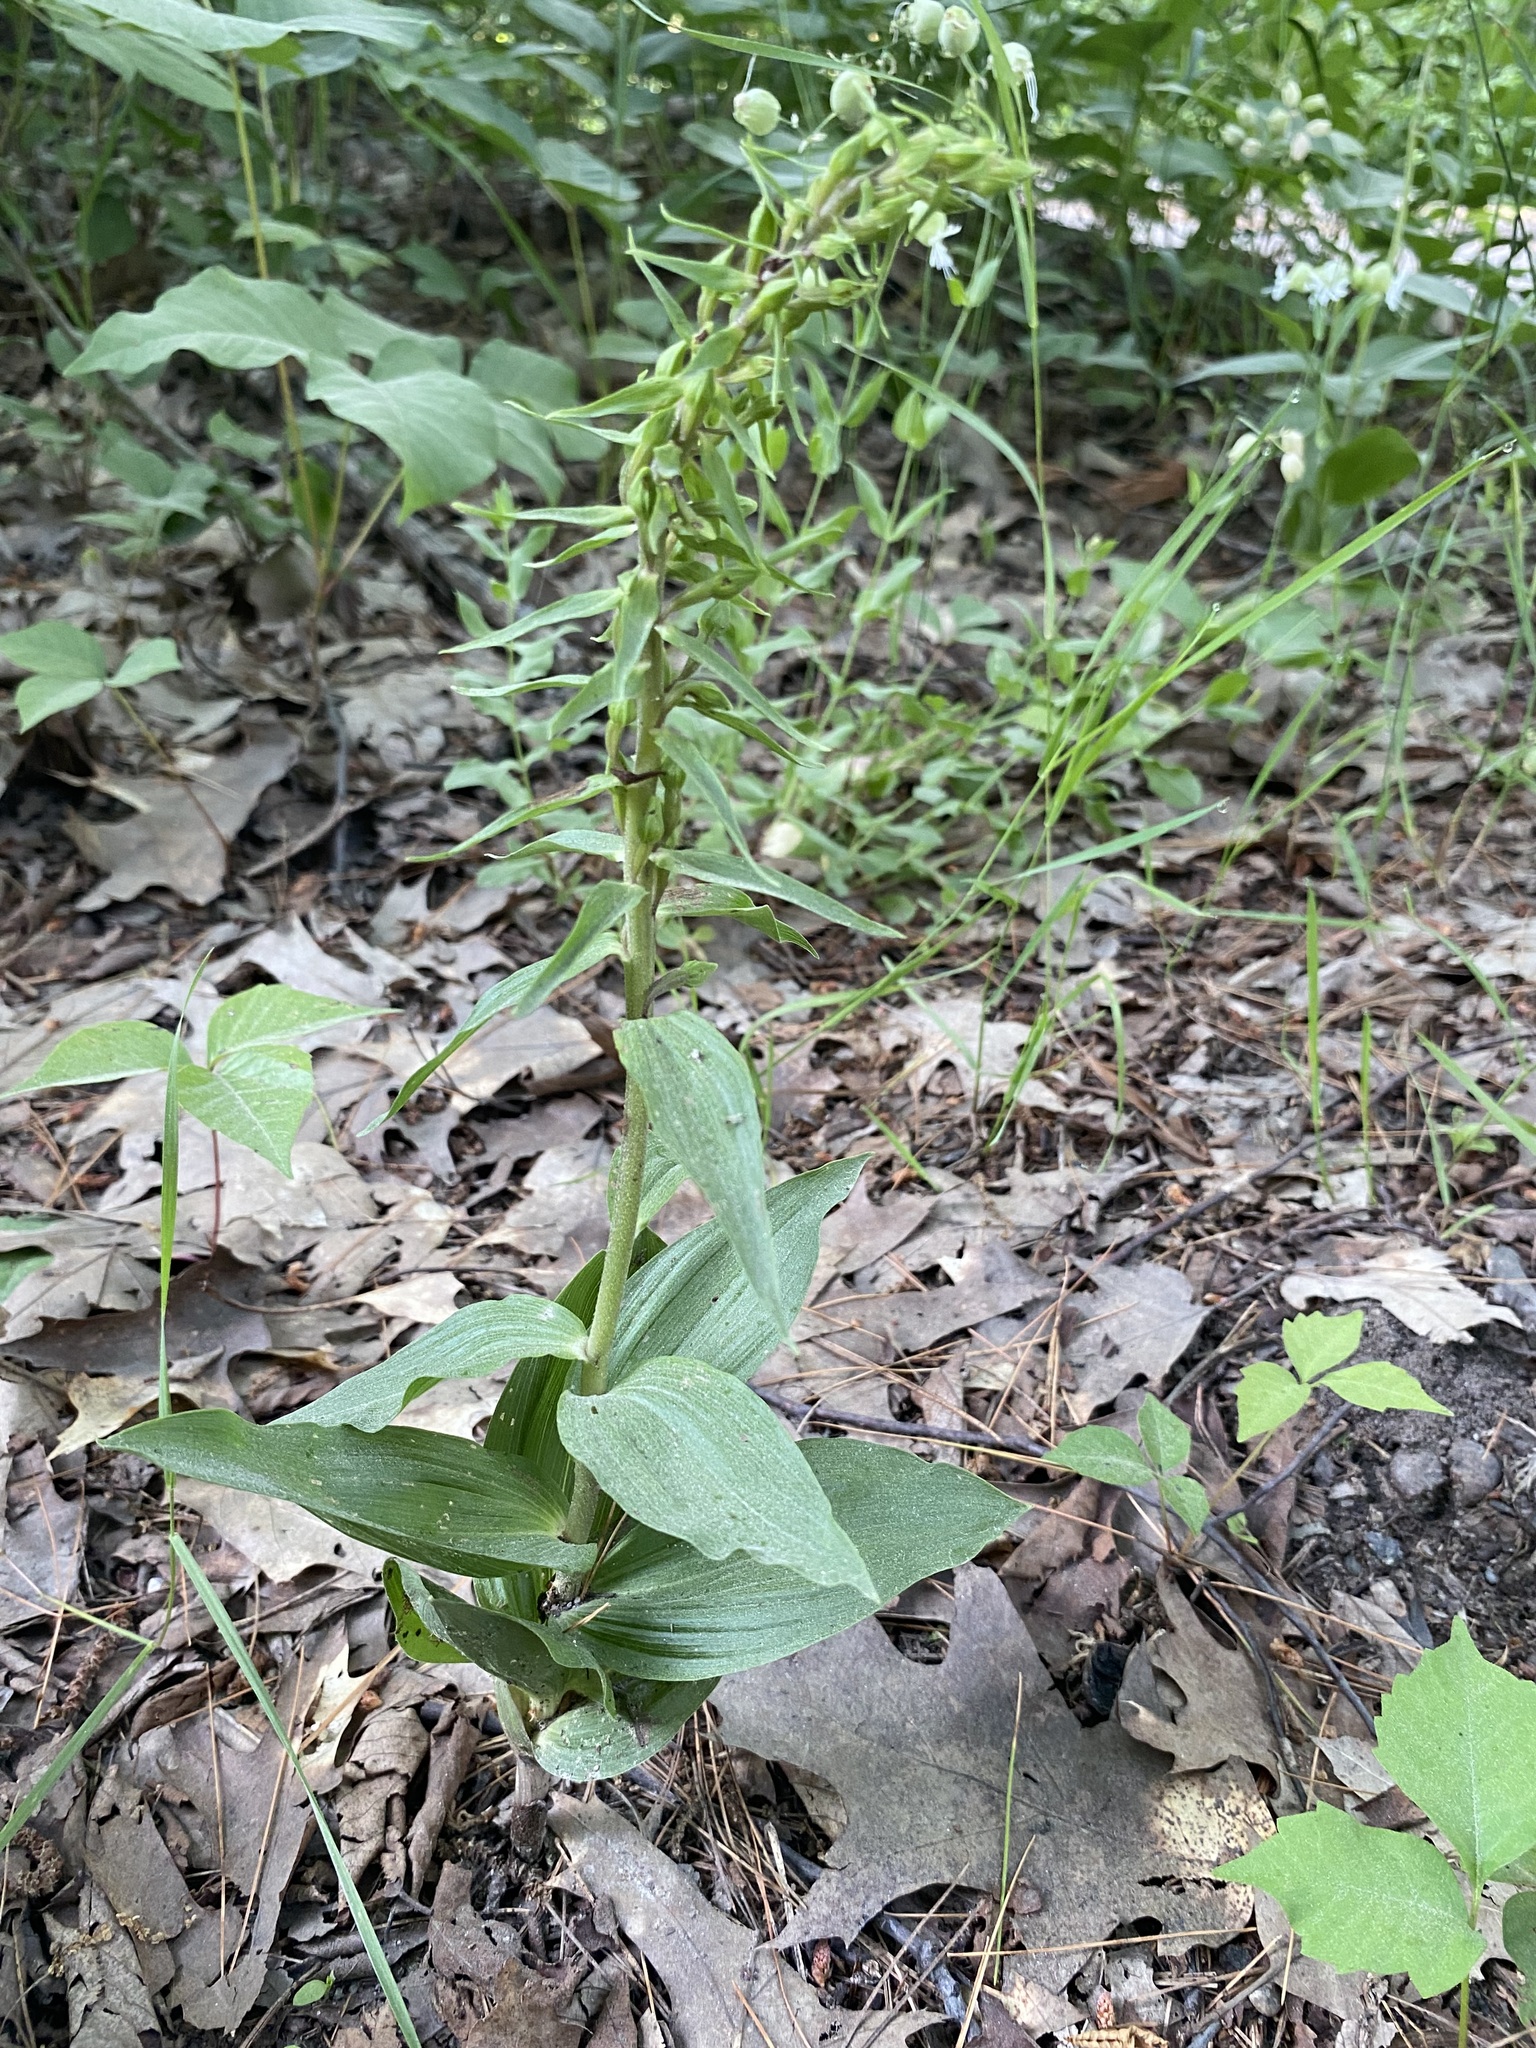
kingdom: Plantae
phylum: Tracheophyta
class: Liliopsida
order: Asparagales
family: Orchidaceae
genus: Epipactis
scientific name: Epipactis helleborine
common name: Broad-leaved helleborine
